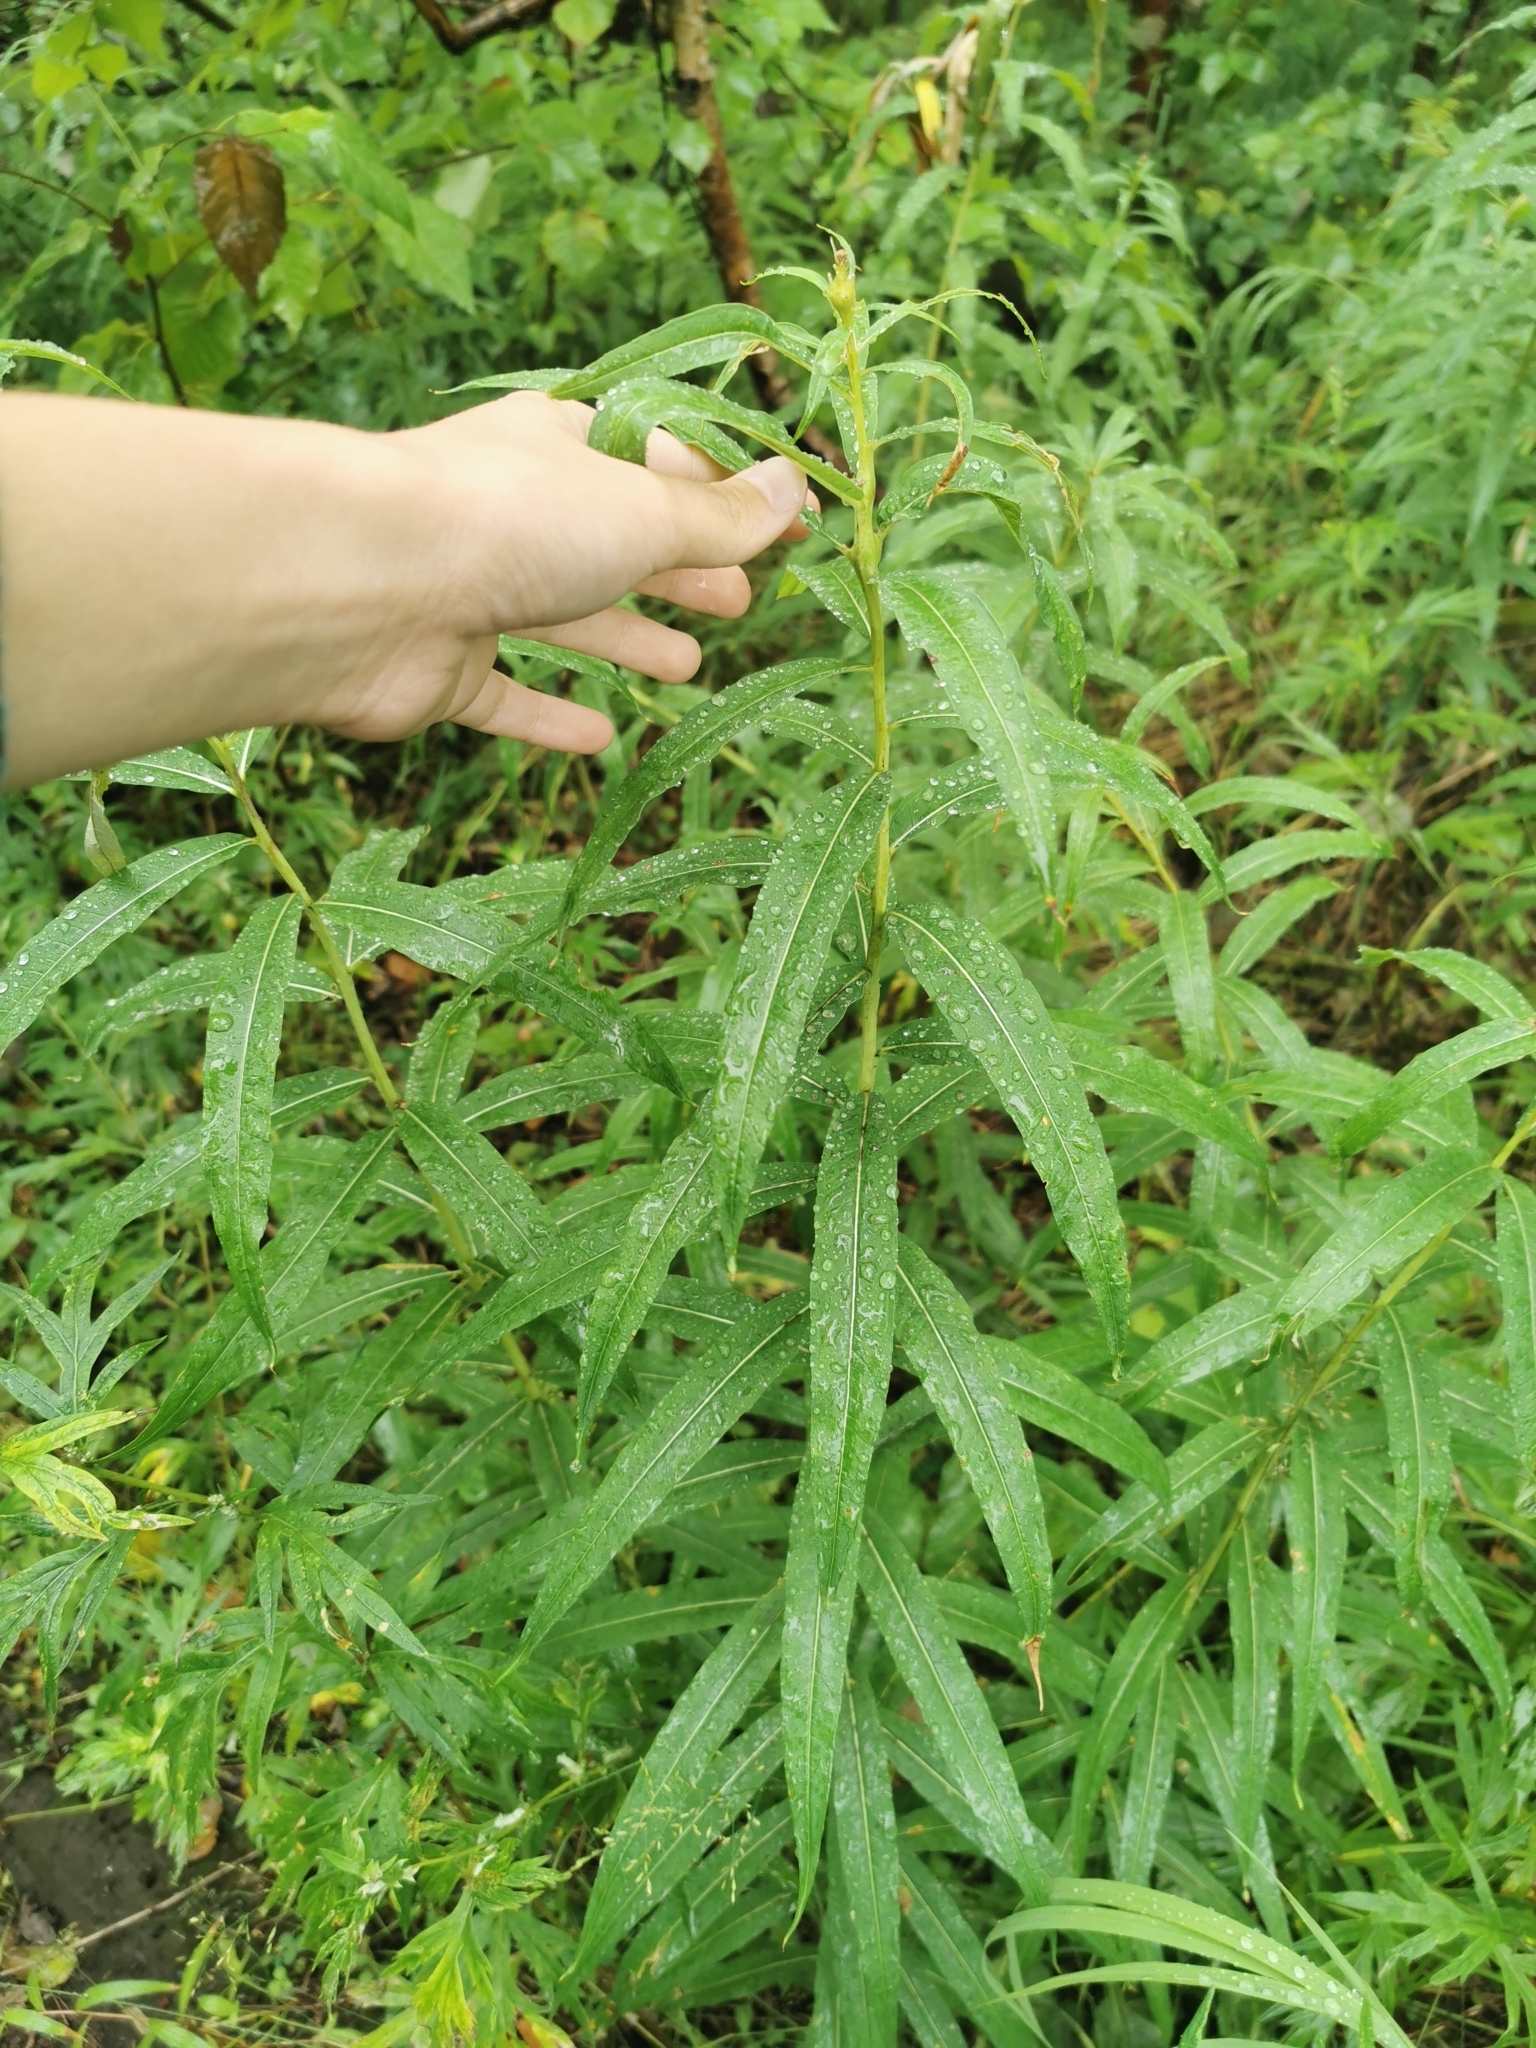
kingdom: Plantae
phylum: Tracheophyta
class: Magnoliopsida
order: Myrtales
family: Onagraceae
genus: Chamaenerion
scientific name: Chamaenerion angustifolium
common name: Fireweed
